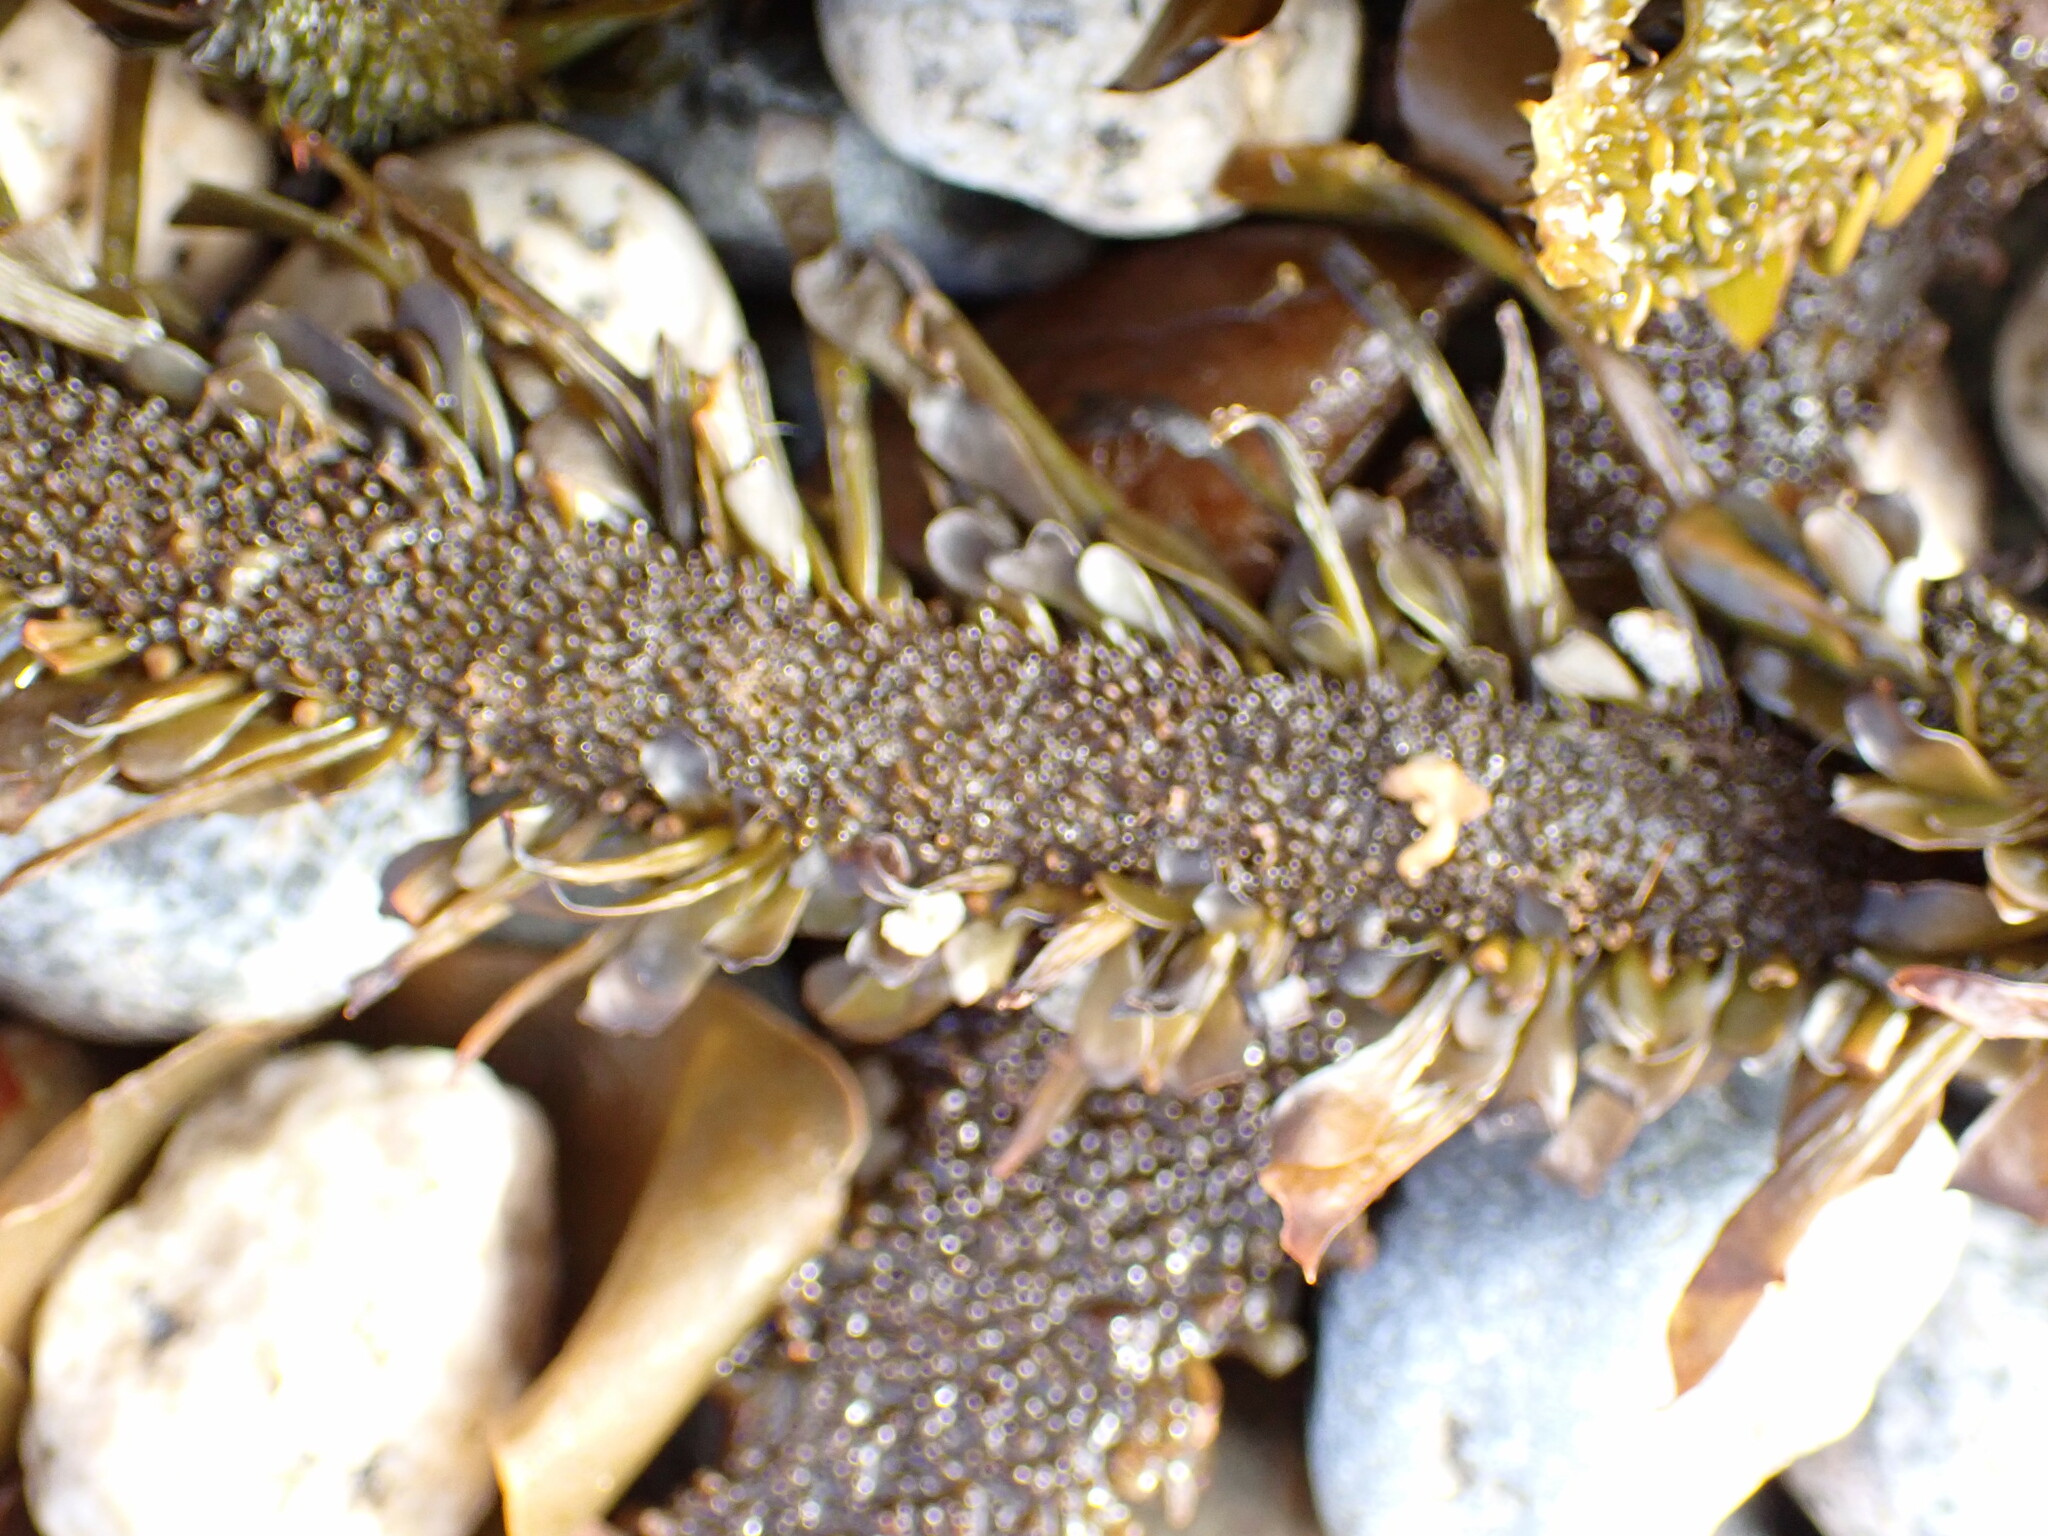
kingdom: Chromista
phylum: Ochrophyta
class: Phaeophyceae
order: Laminariales
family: Lessoniaceae
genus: Egregia
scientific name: Egregia menziesii
